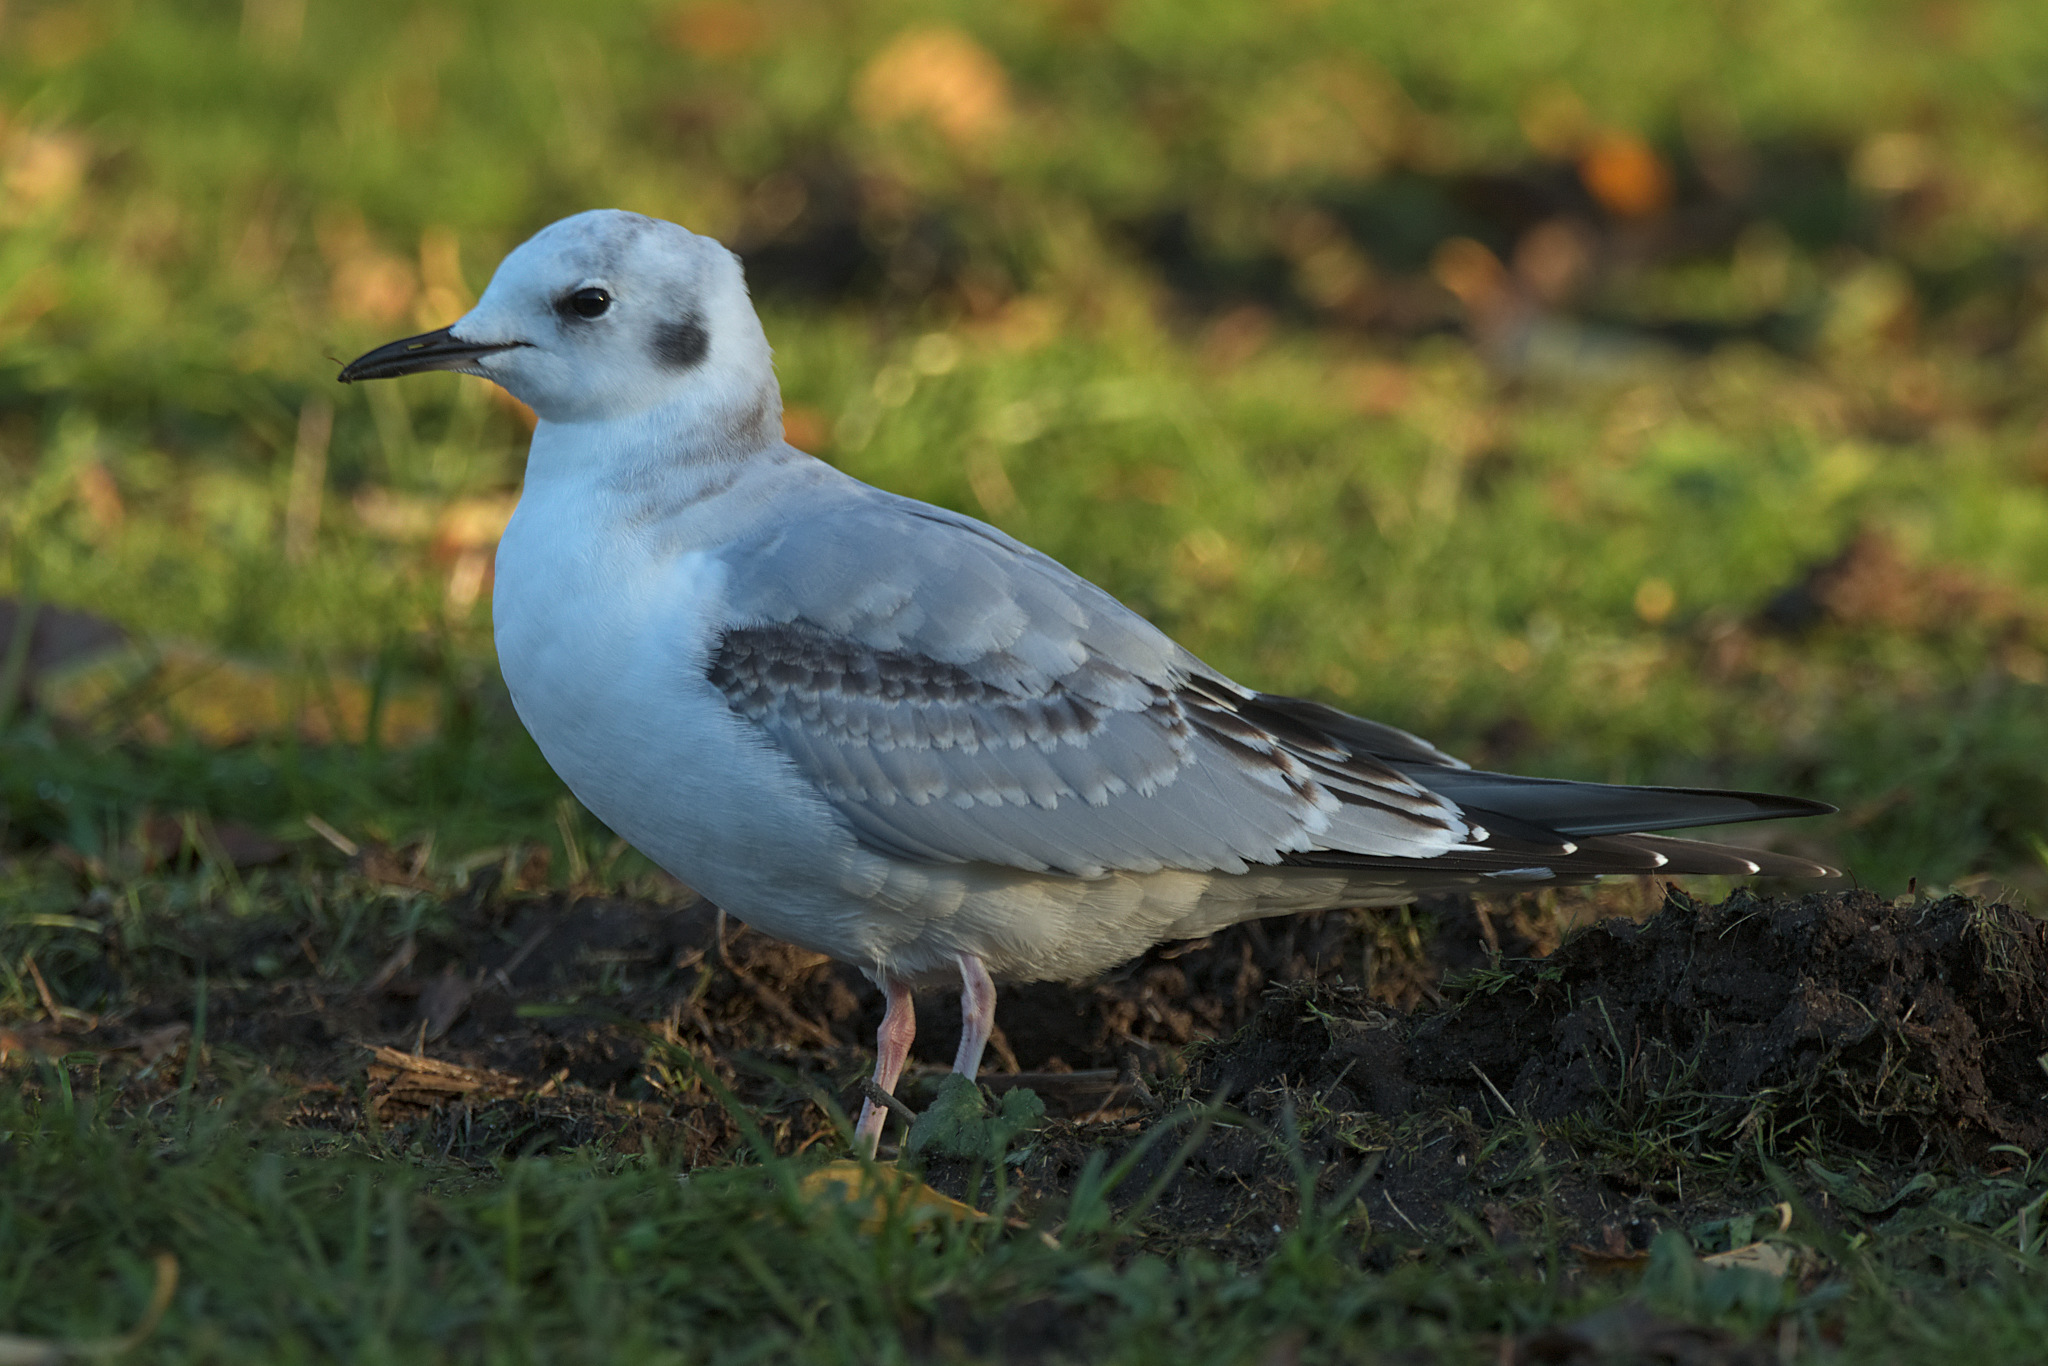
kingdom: Animalia
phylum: Chordata
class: Aves
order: Charadriiformes
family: Laridae
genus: Chroicocephalus
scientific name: Chroicocephalus philadelphia
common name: Bonaparte's gull
